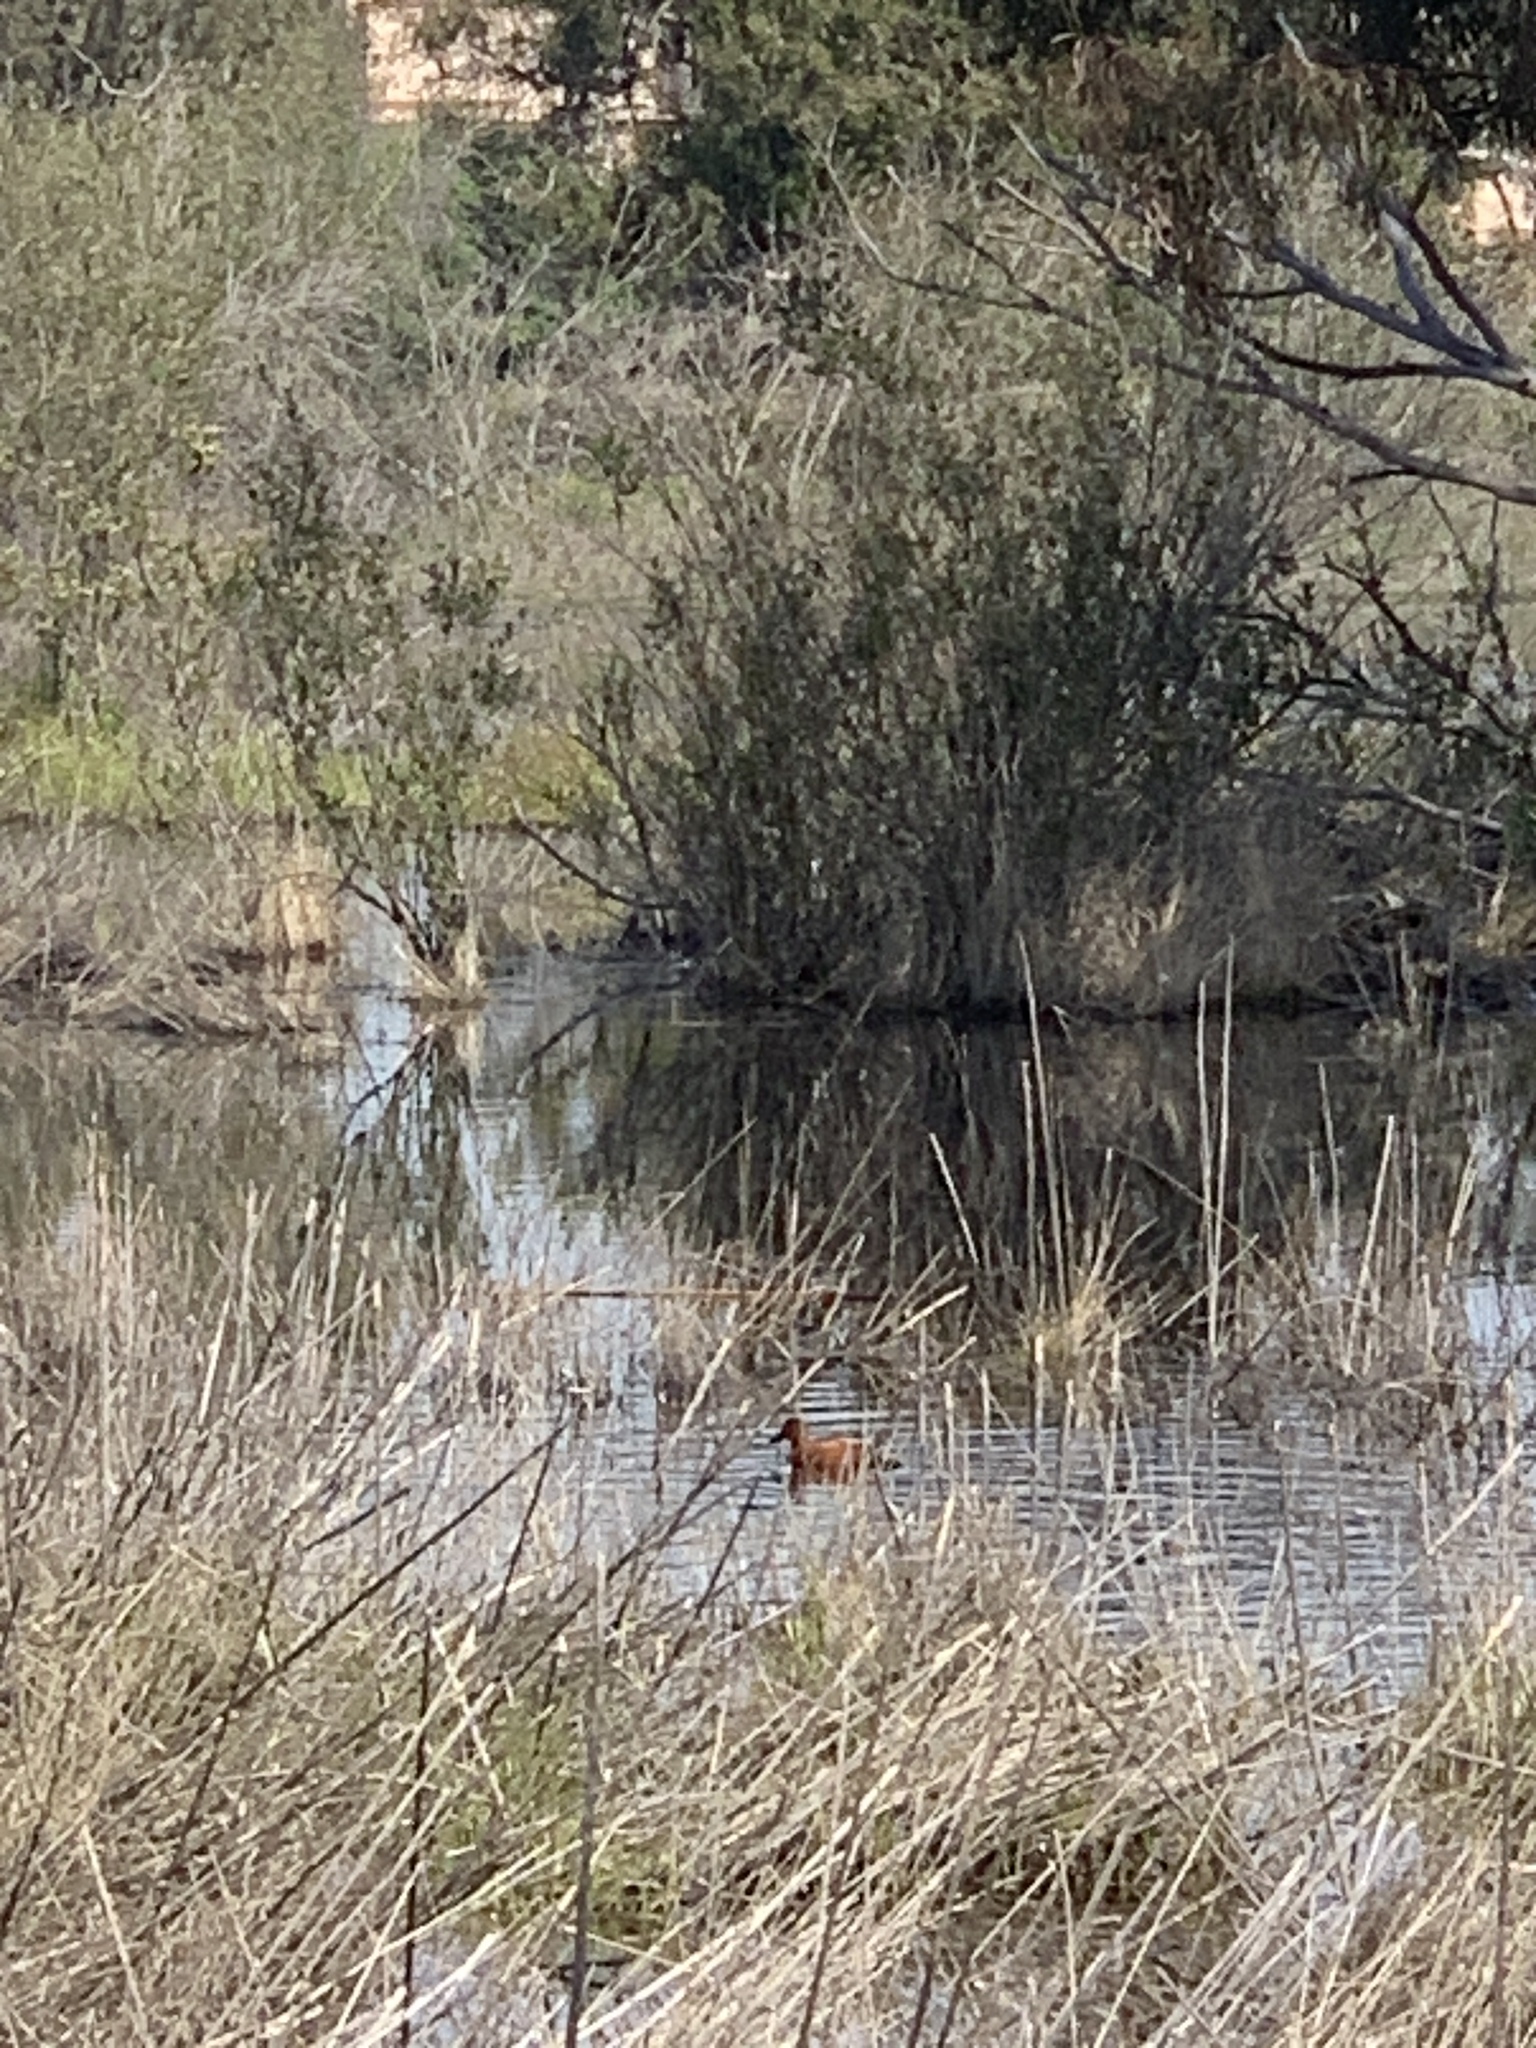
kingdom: Animalia
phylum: Chordata
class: Aves
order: Anseriformes
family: Anatidae
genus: Spatula
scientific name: Spatula cyanoptera
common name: Cinnamon teal
